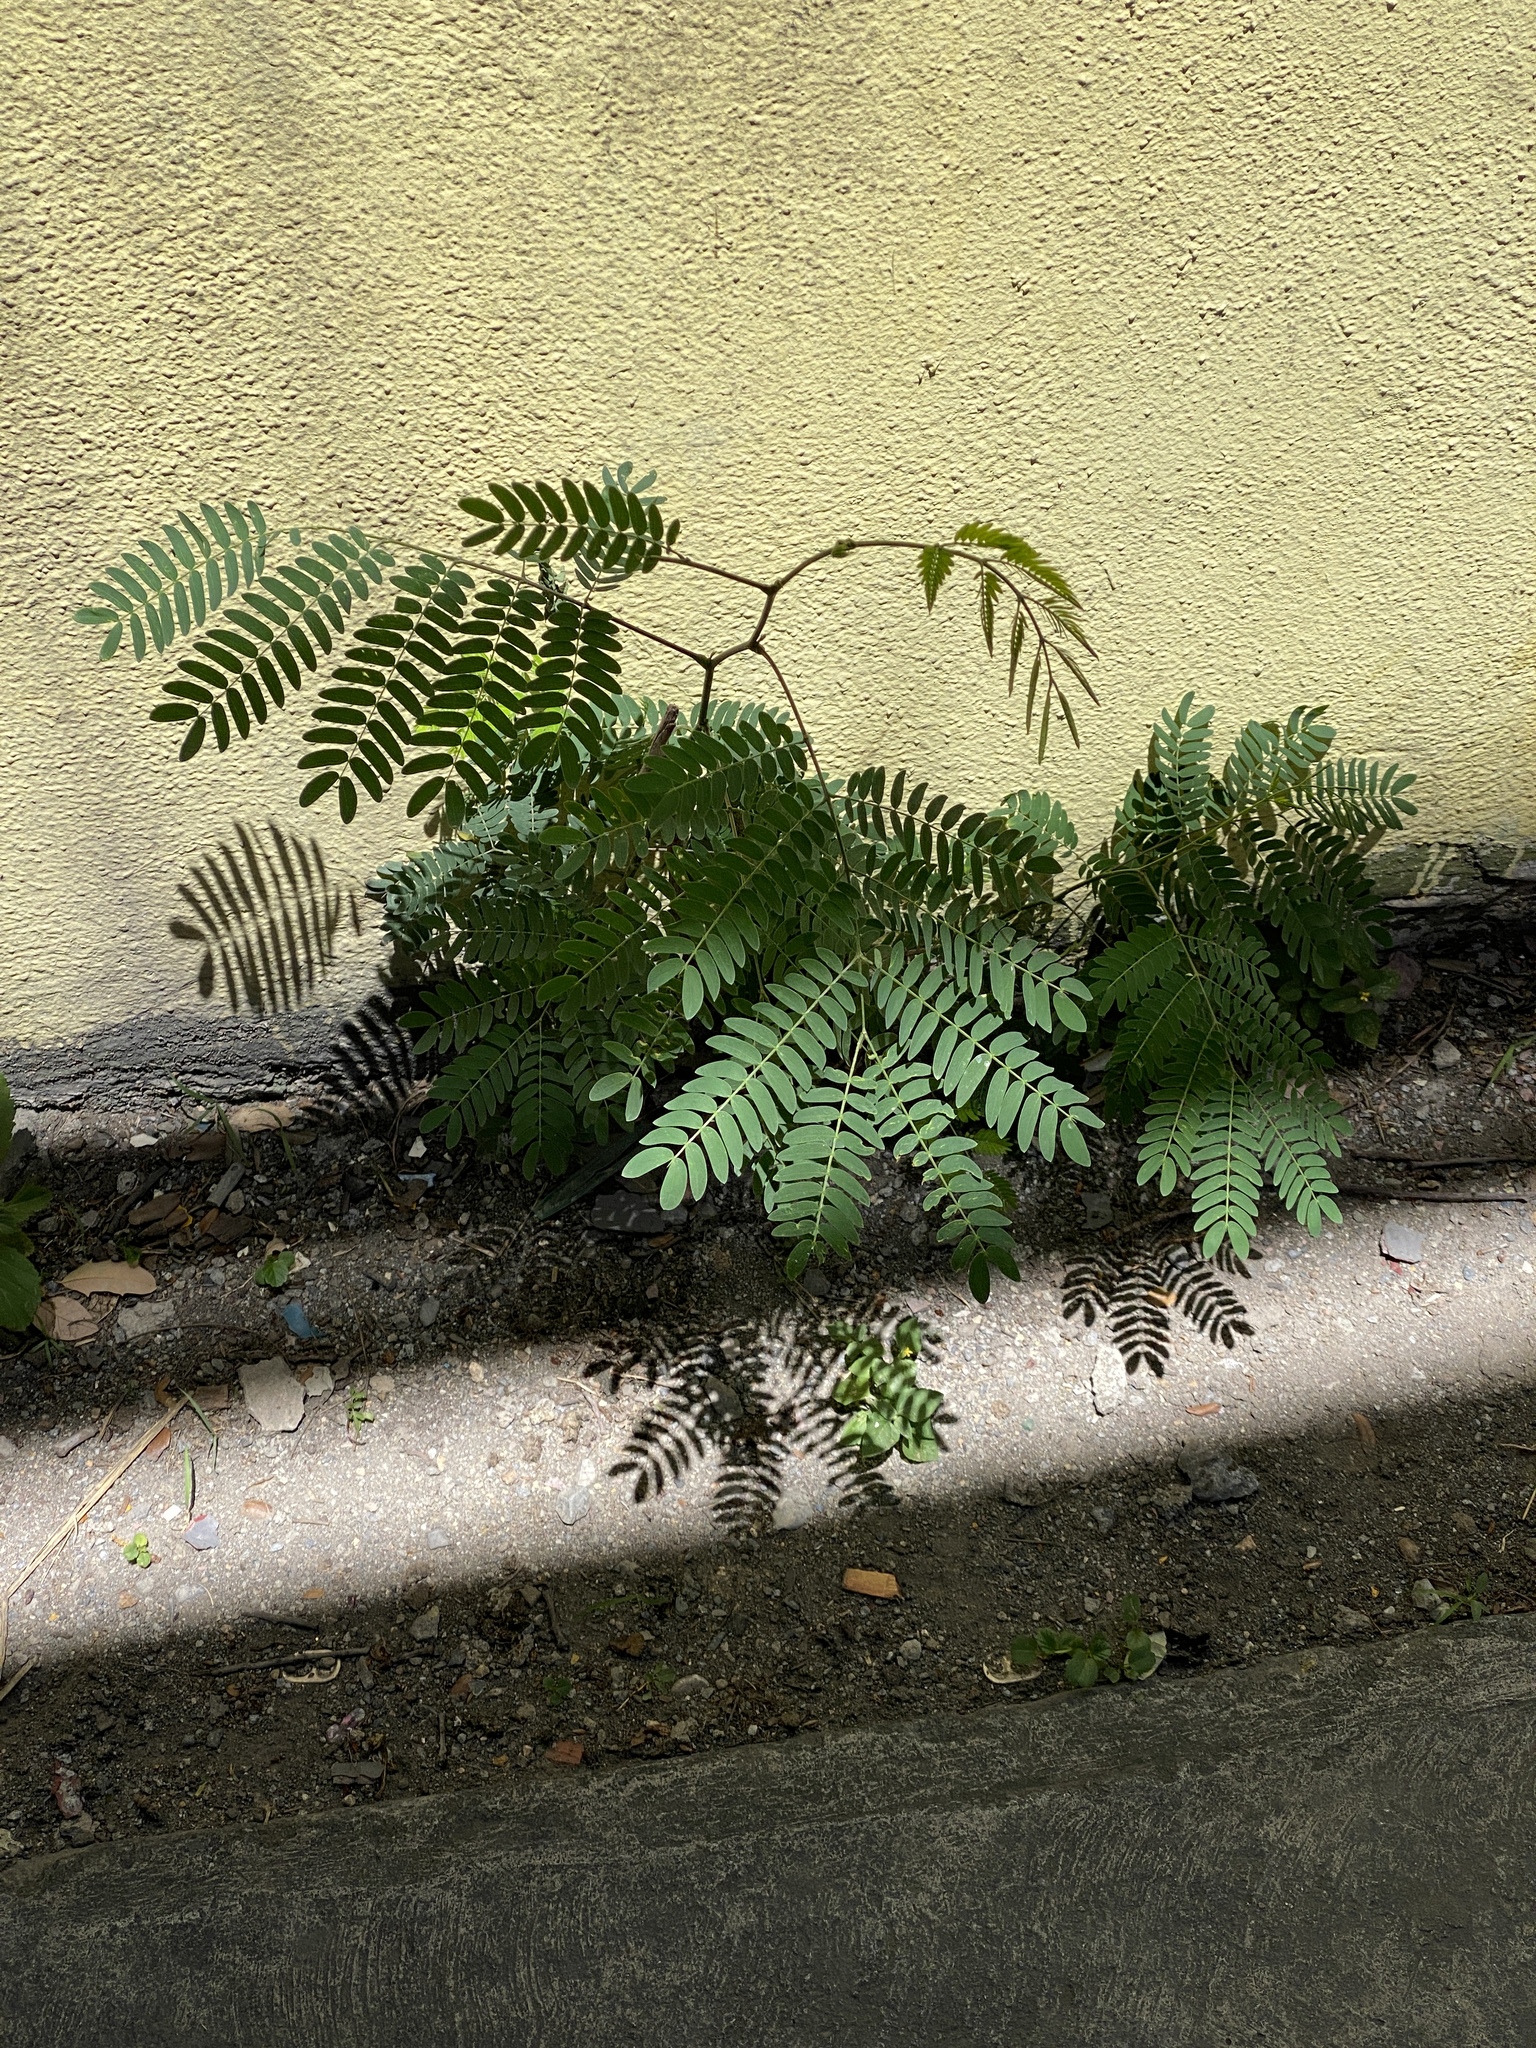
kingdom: Plantae
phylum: Tracheophyta
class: Magnoliopsida
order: Fabales
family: Fabaceae
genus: Leucaena
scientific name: Leucaena leucocephala
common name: White leadtree
